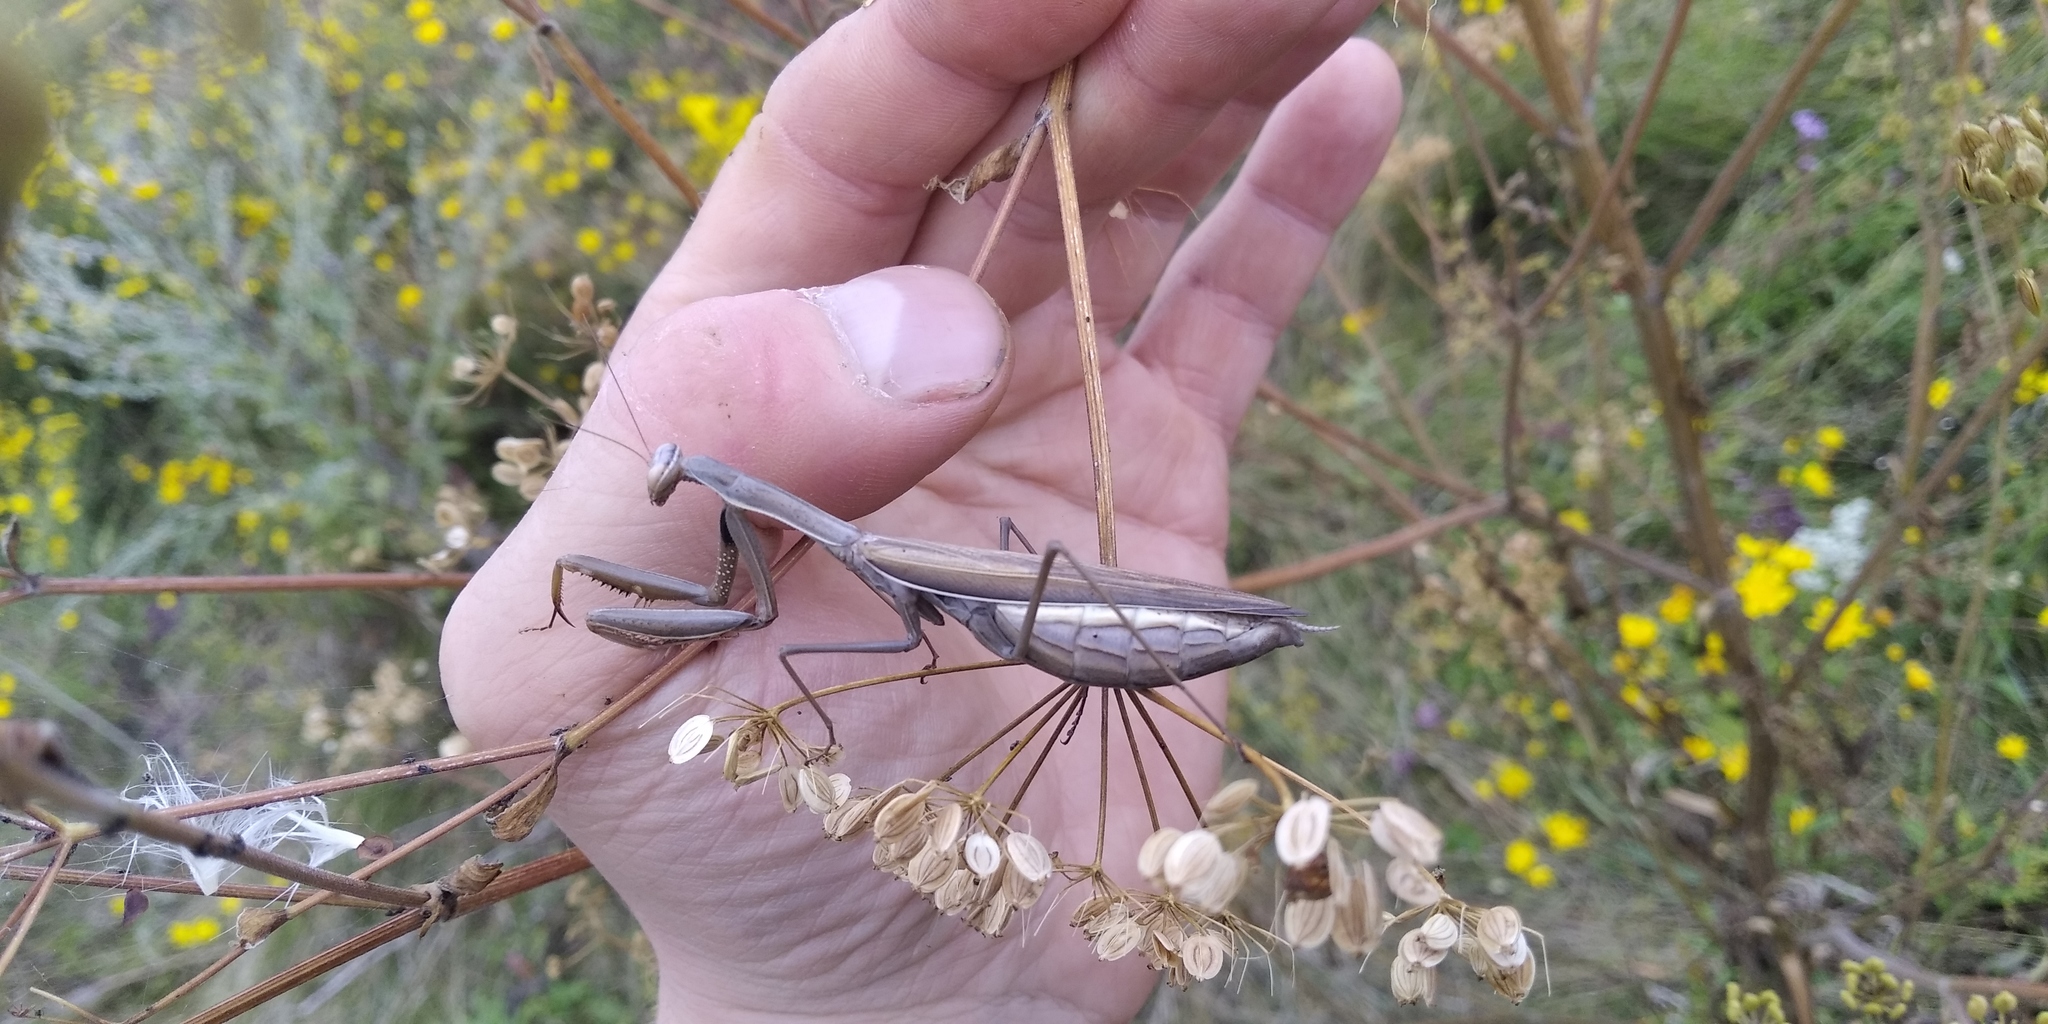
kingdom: Animalia
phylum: Arthropoda
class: Insecta
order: Mantodea
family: Mantidae
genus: Mantis
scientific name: Mantis religiosa
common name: Praying mantis
